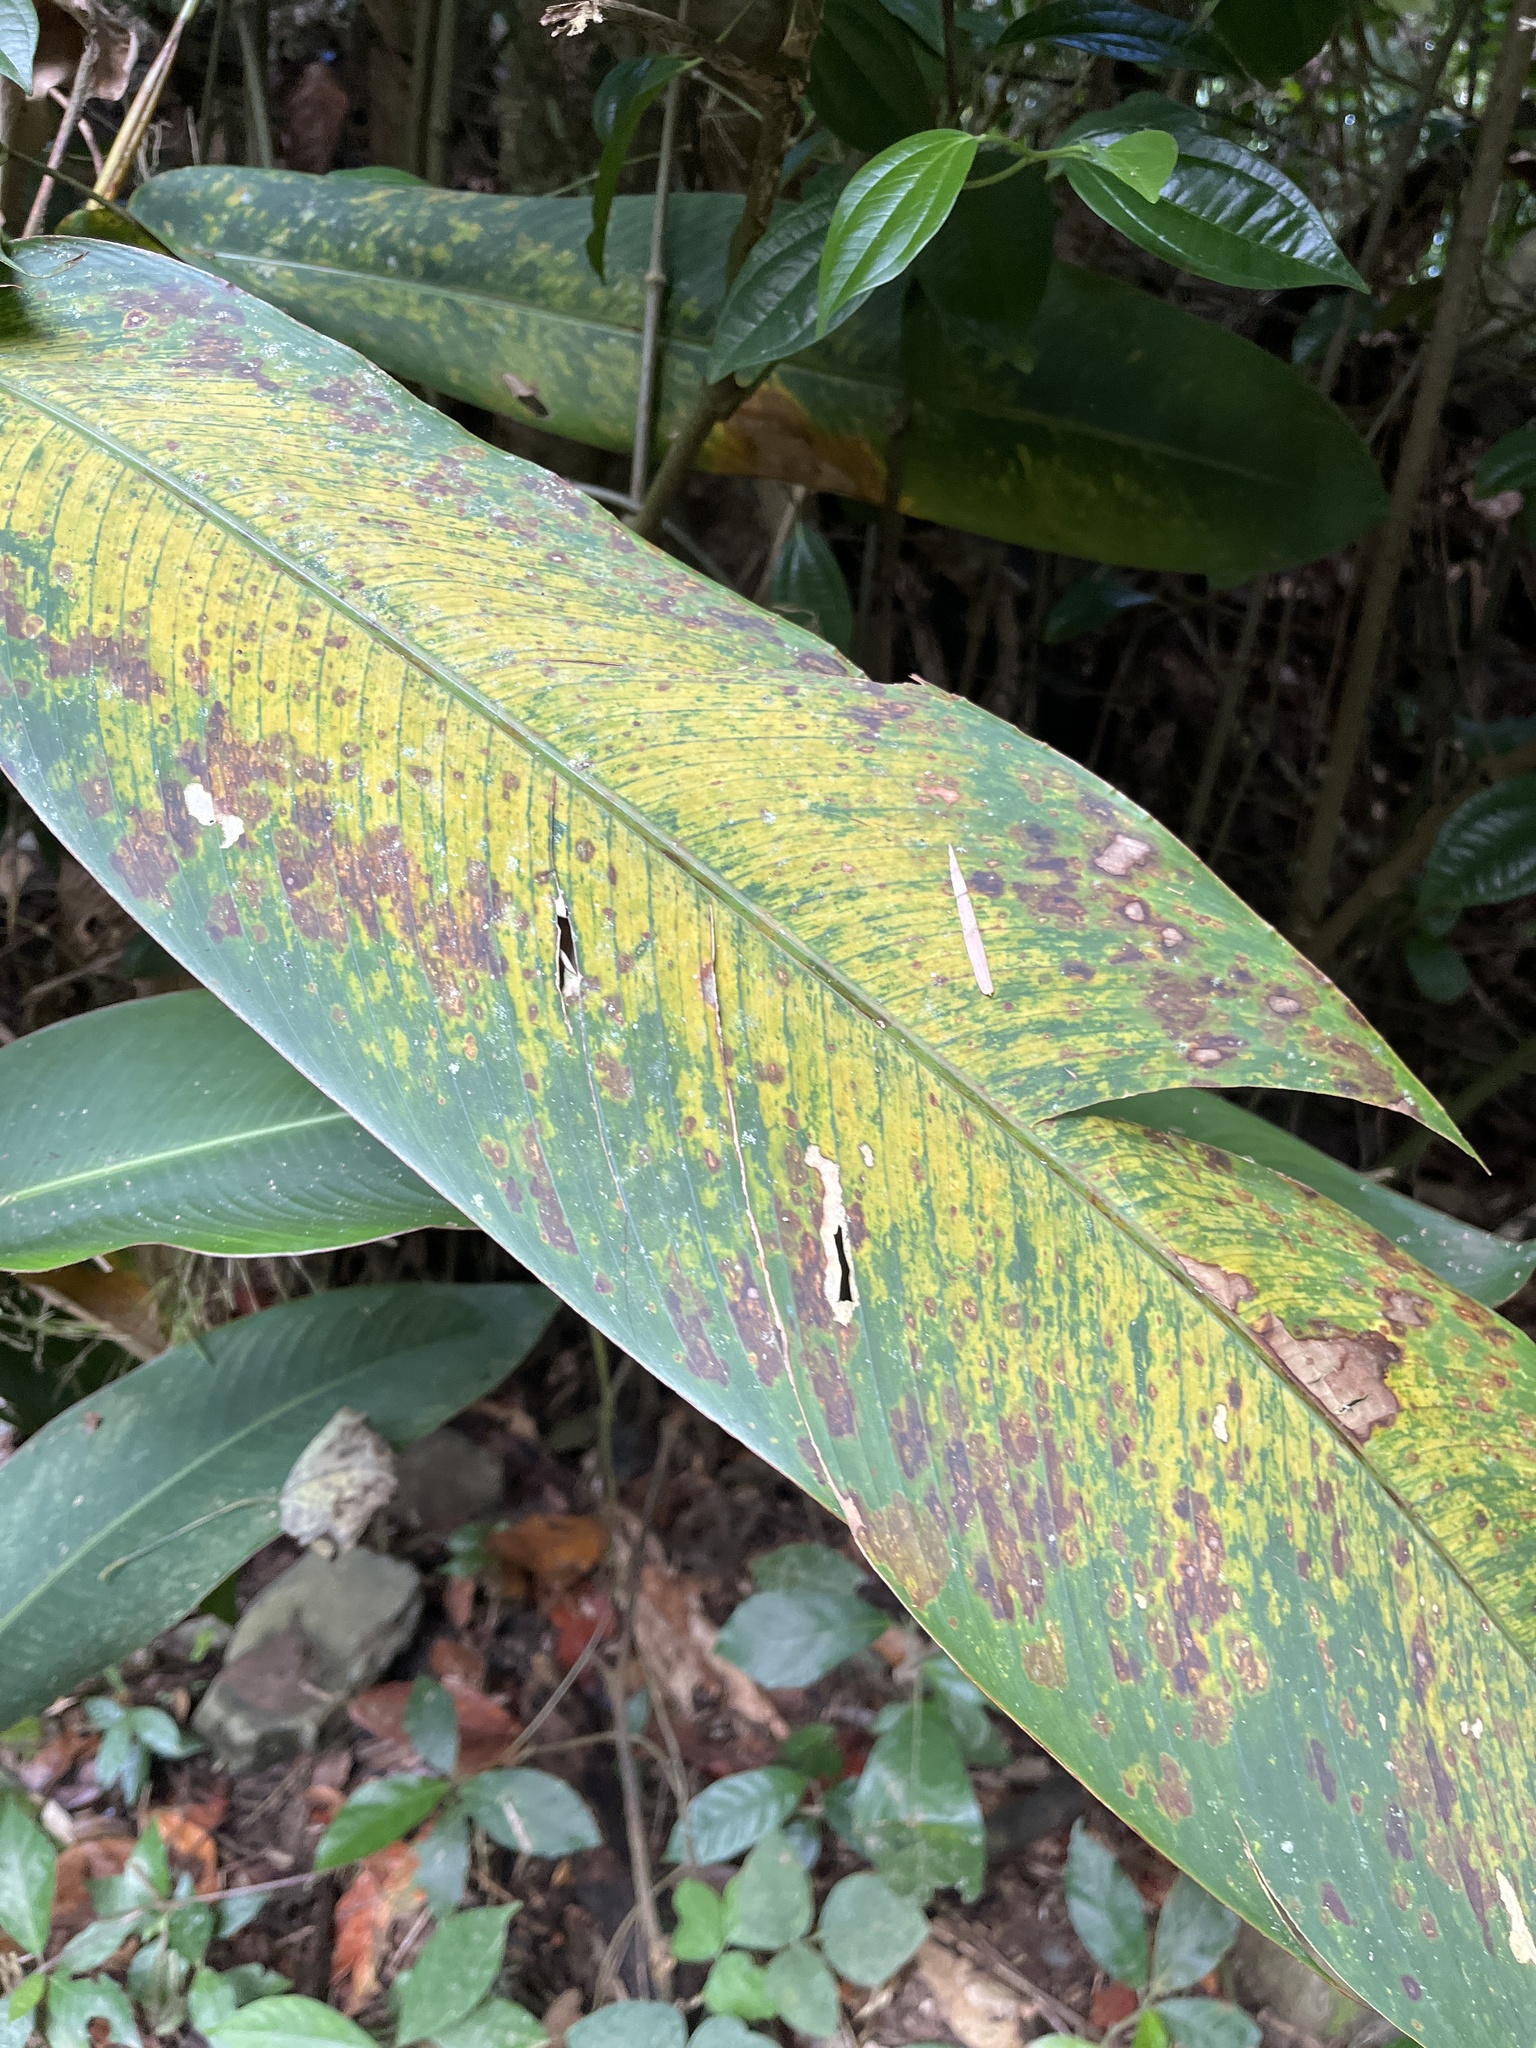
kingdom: Plantae
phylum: Tracheophyta
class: Liliopsida
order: Zingiberales
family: Heliconiaceae
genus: Heliconia
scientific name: Heliconia caribaea
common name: Wild plantain
